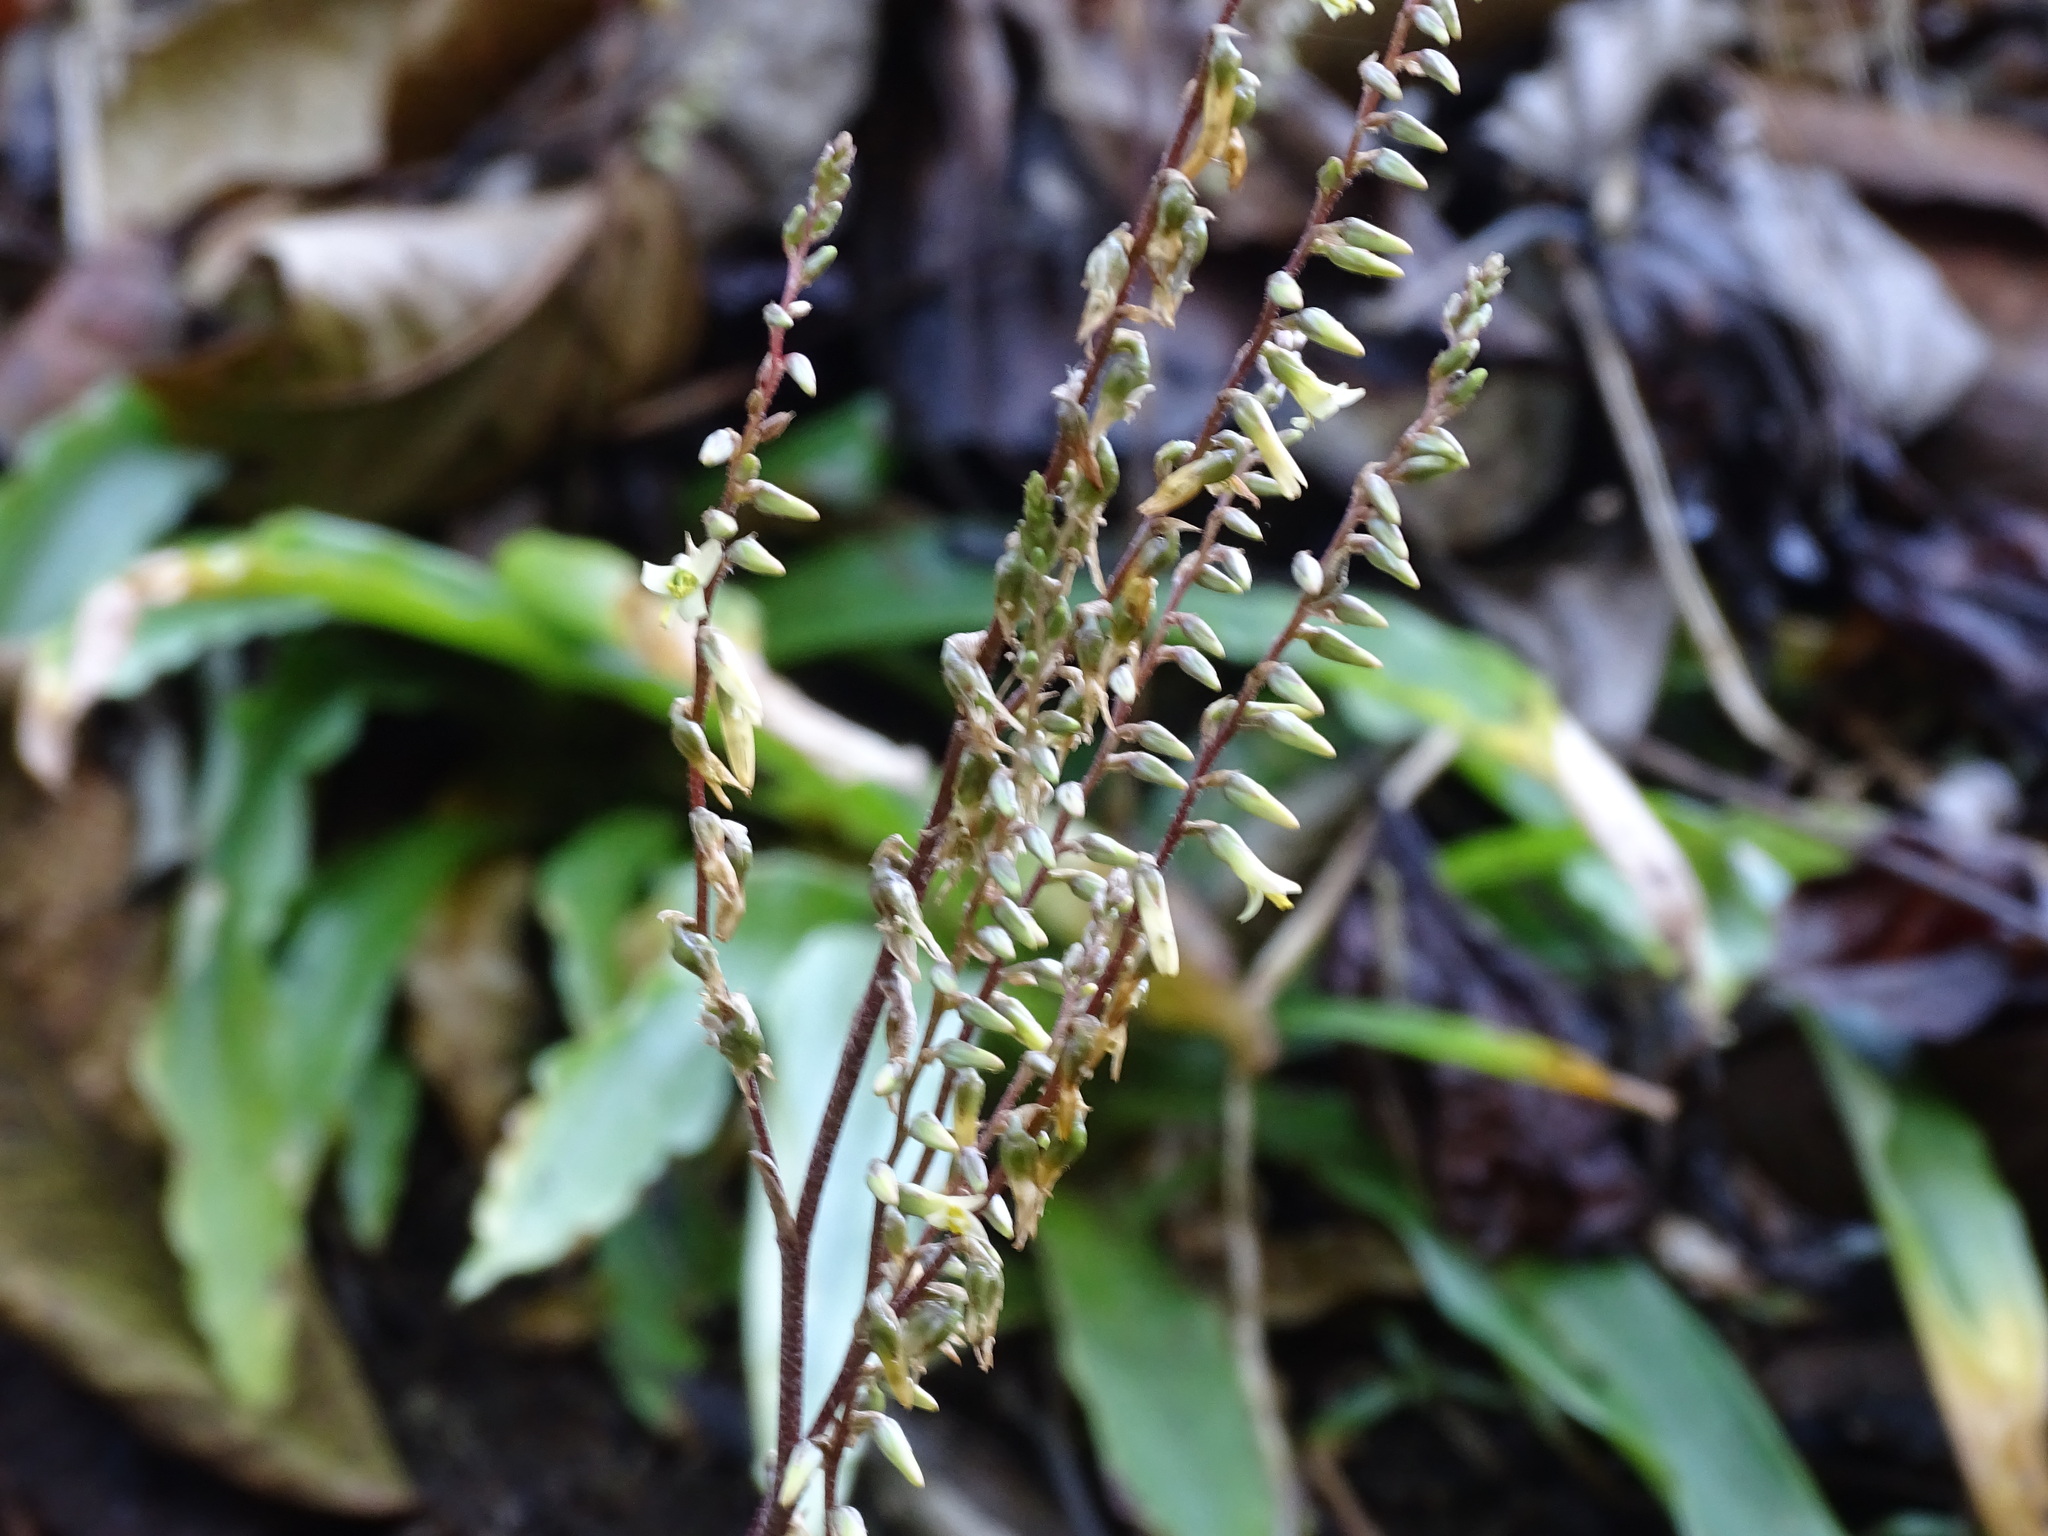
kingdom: Plantae
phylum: Tracheophyta
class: Liliopsida
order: Poales
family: Bromeliaceae
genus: Fosterella
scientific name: Fosterella micrantha
